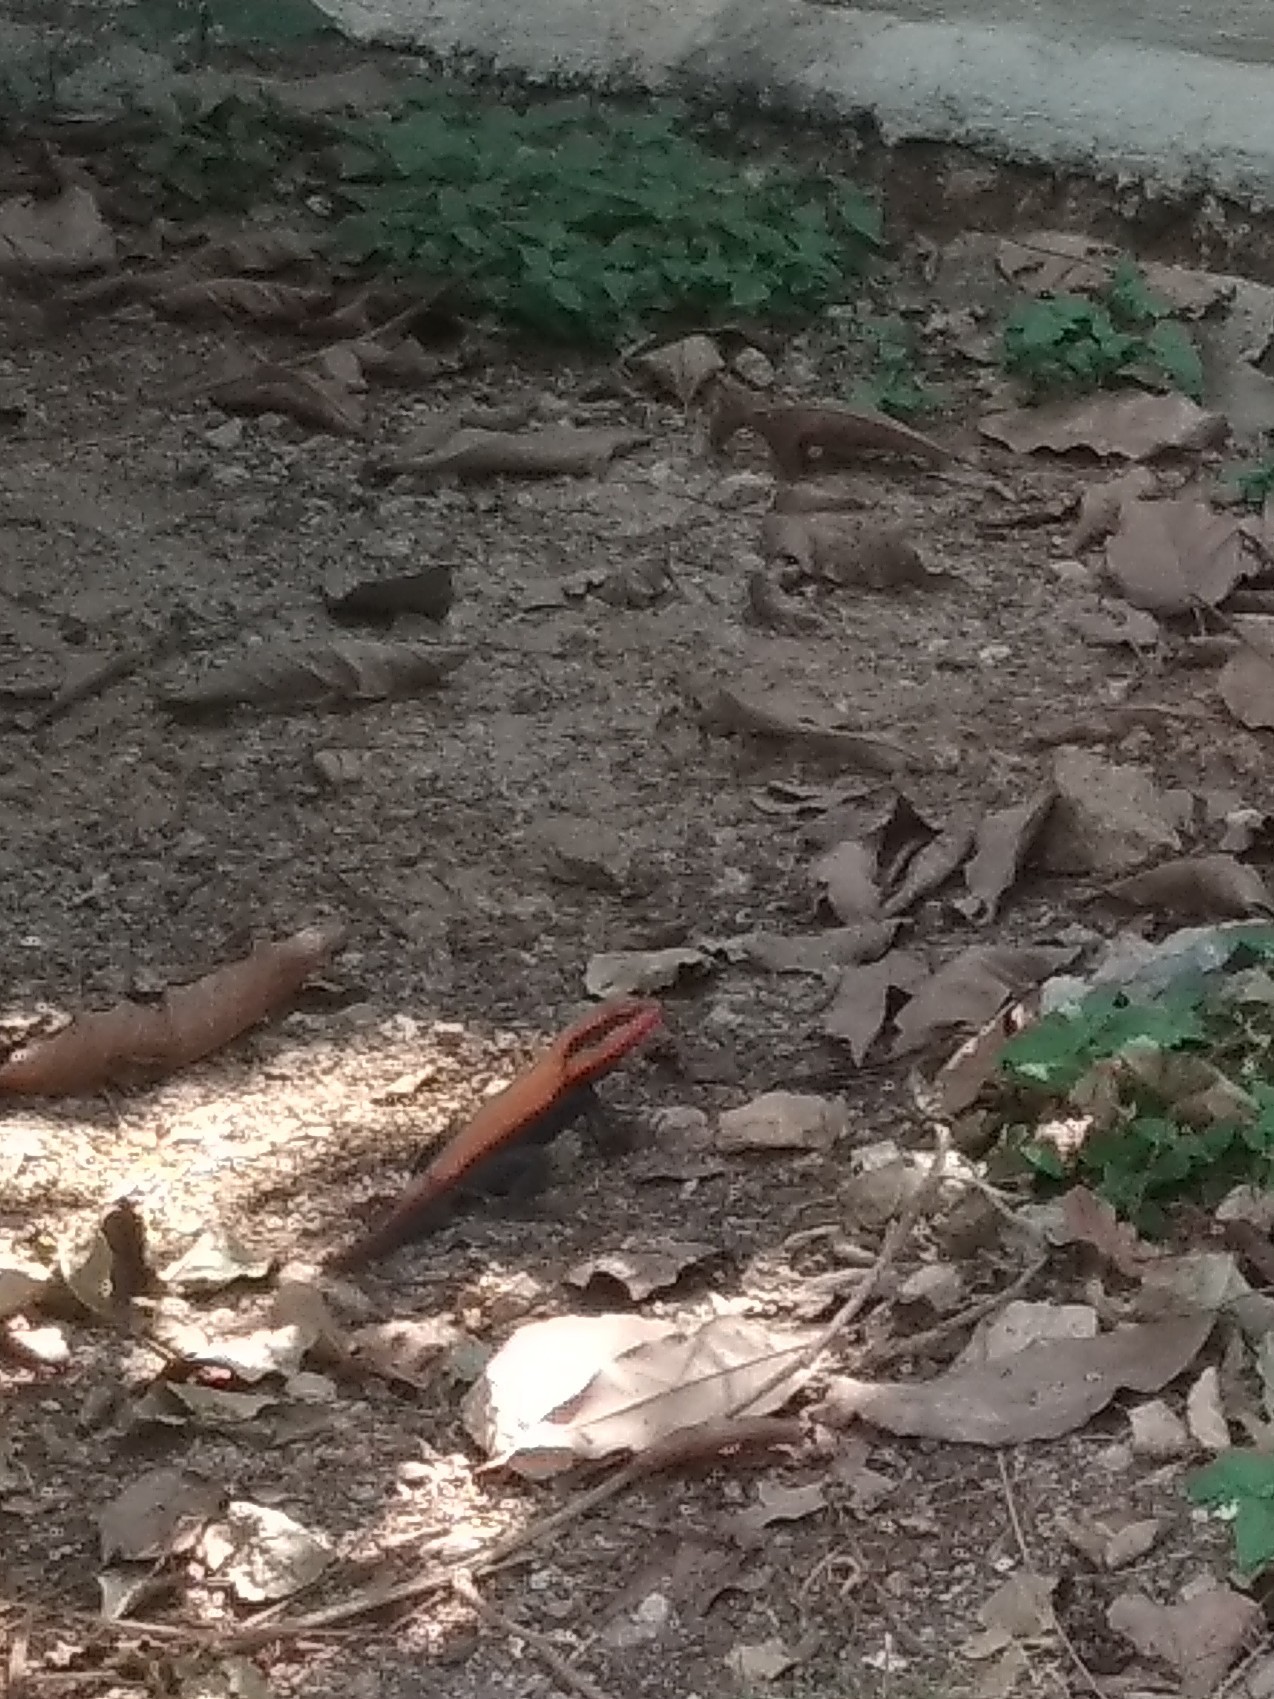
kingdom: Animalia
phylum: Chordata
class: Squamata
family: Agamidae
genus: Psammophilus
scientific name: Psammophilus dorsalis
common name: South indian rock agama
